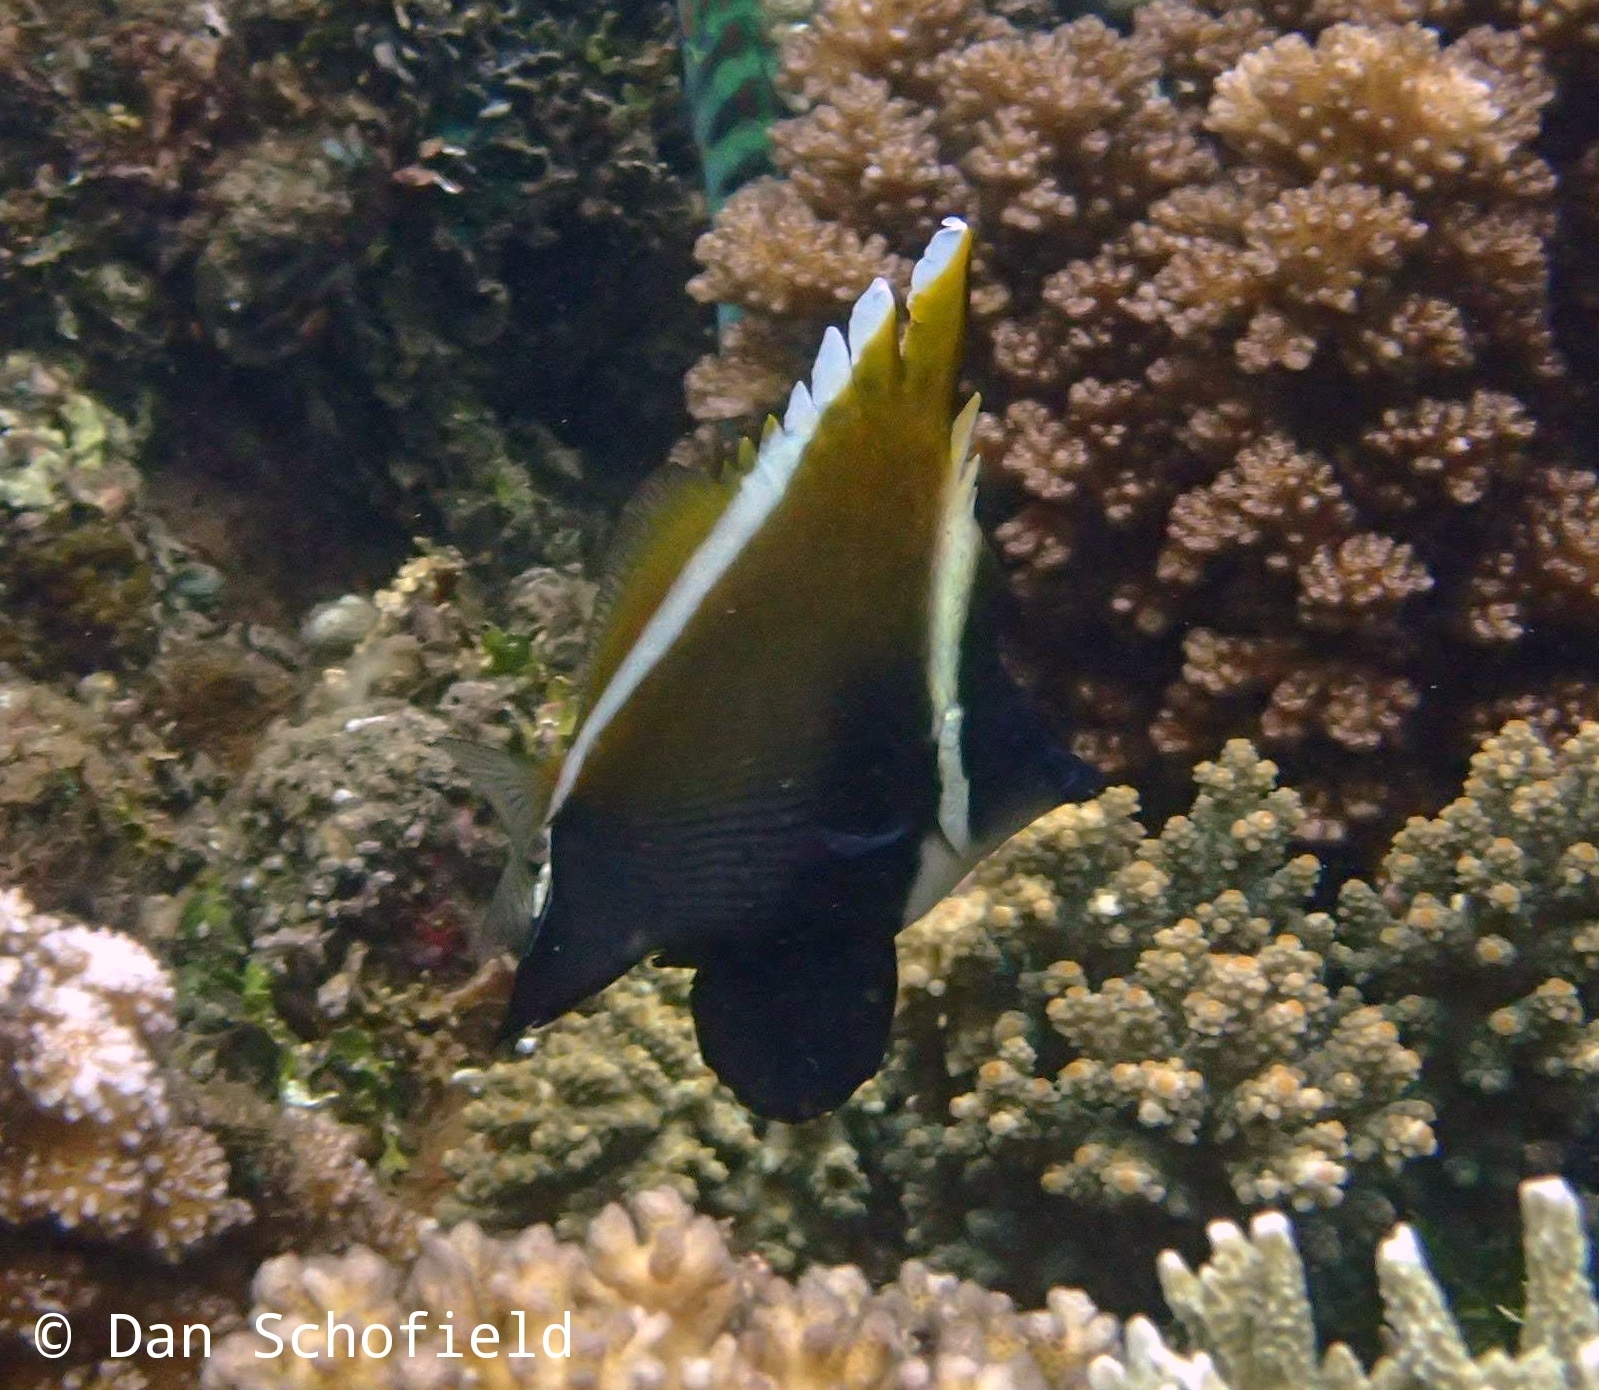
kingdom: Animalia
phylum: Chordata
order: Perciformes
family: Chaetodontidae
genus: Heniochus
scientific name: Heniochus varius
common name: Horned bannerfish
